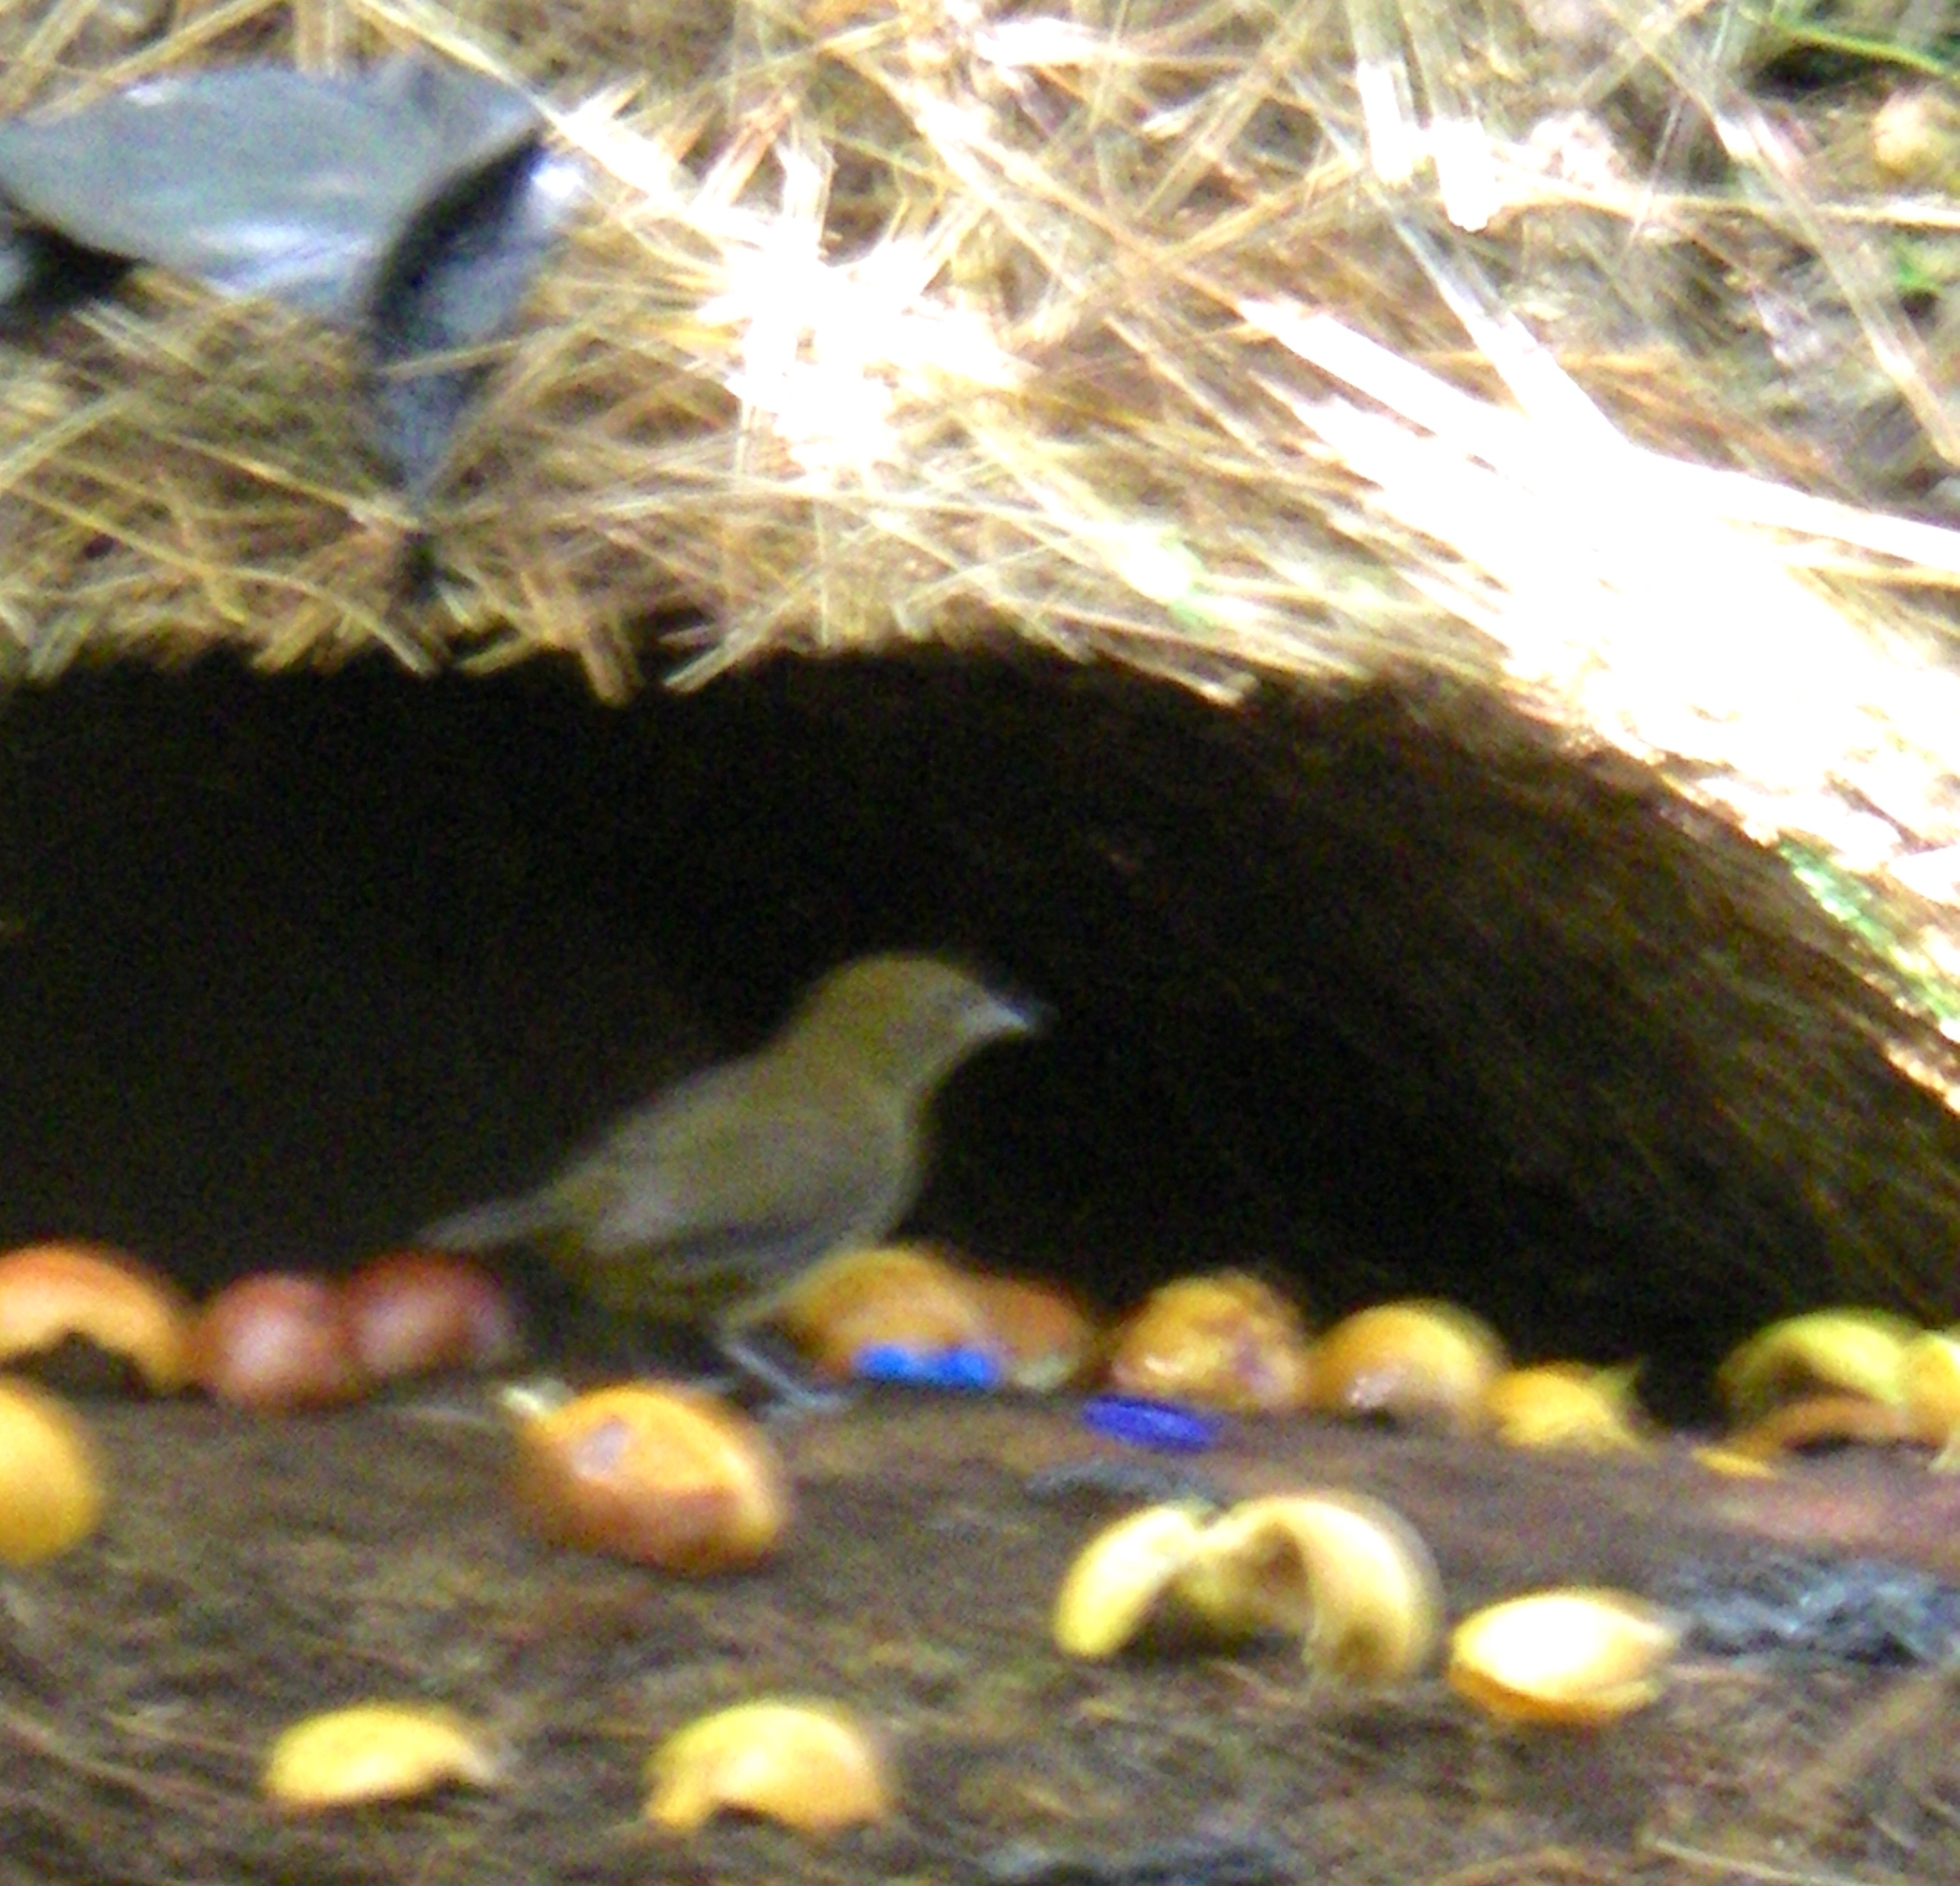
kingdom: Animalia
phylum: Chordata
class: Aves
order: Passeriformes
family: Ptilonorhynchidae
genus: Amblyornis
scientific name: Amblyornis inornata
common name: Vogelkop bowerbird
